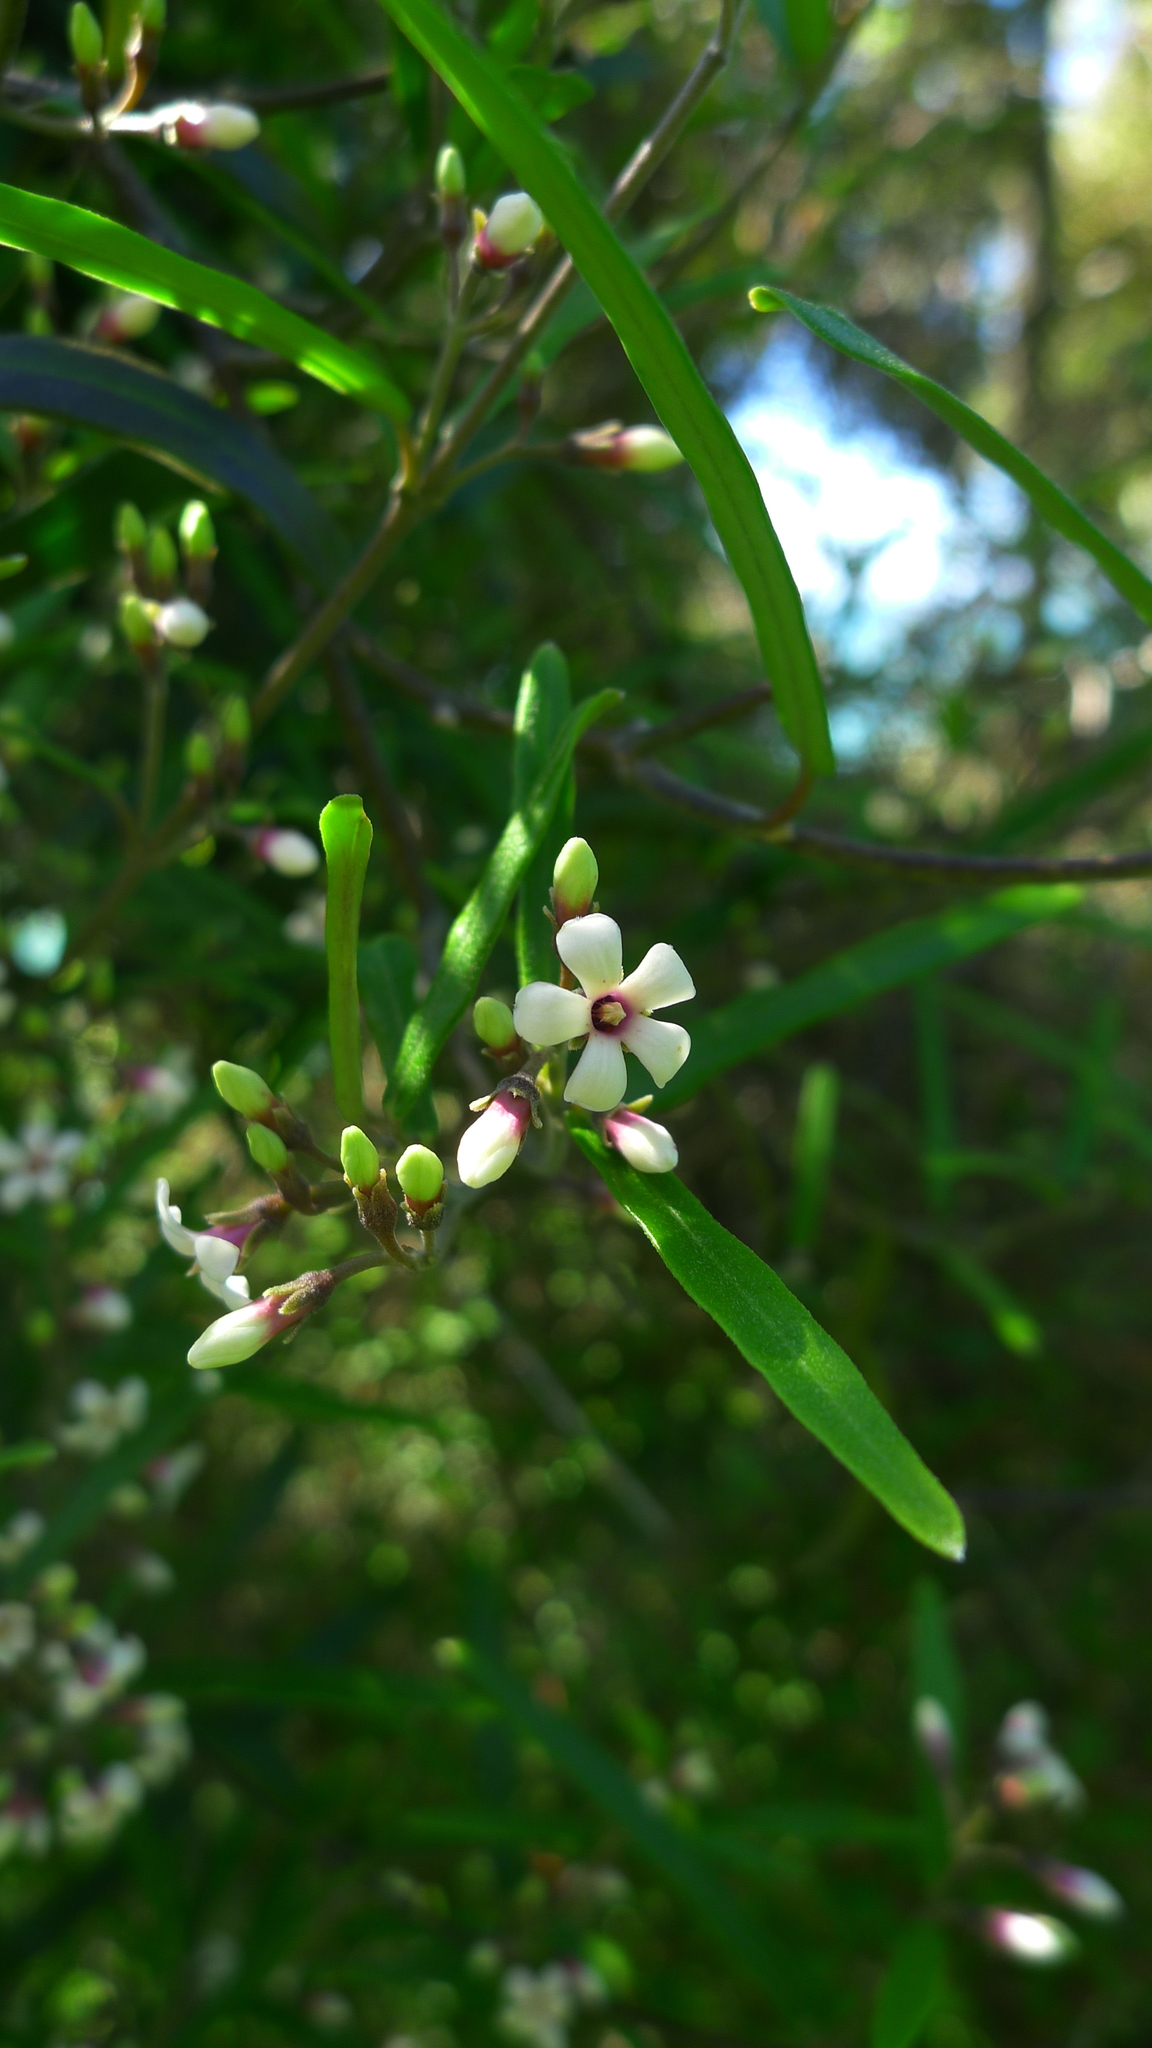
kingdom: Plantae
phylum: Tracheophyta
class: Magnoliopsida
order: Gentianales
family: Apocynaceae
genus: Parsonsia
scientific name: Parsonsia capsularis
